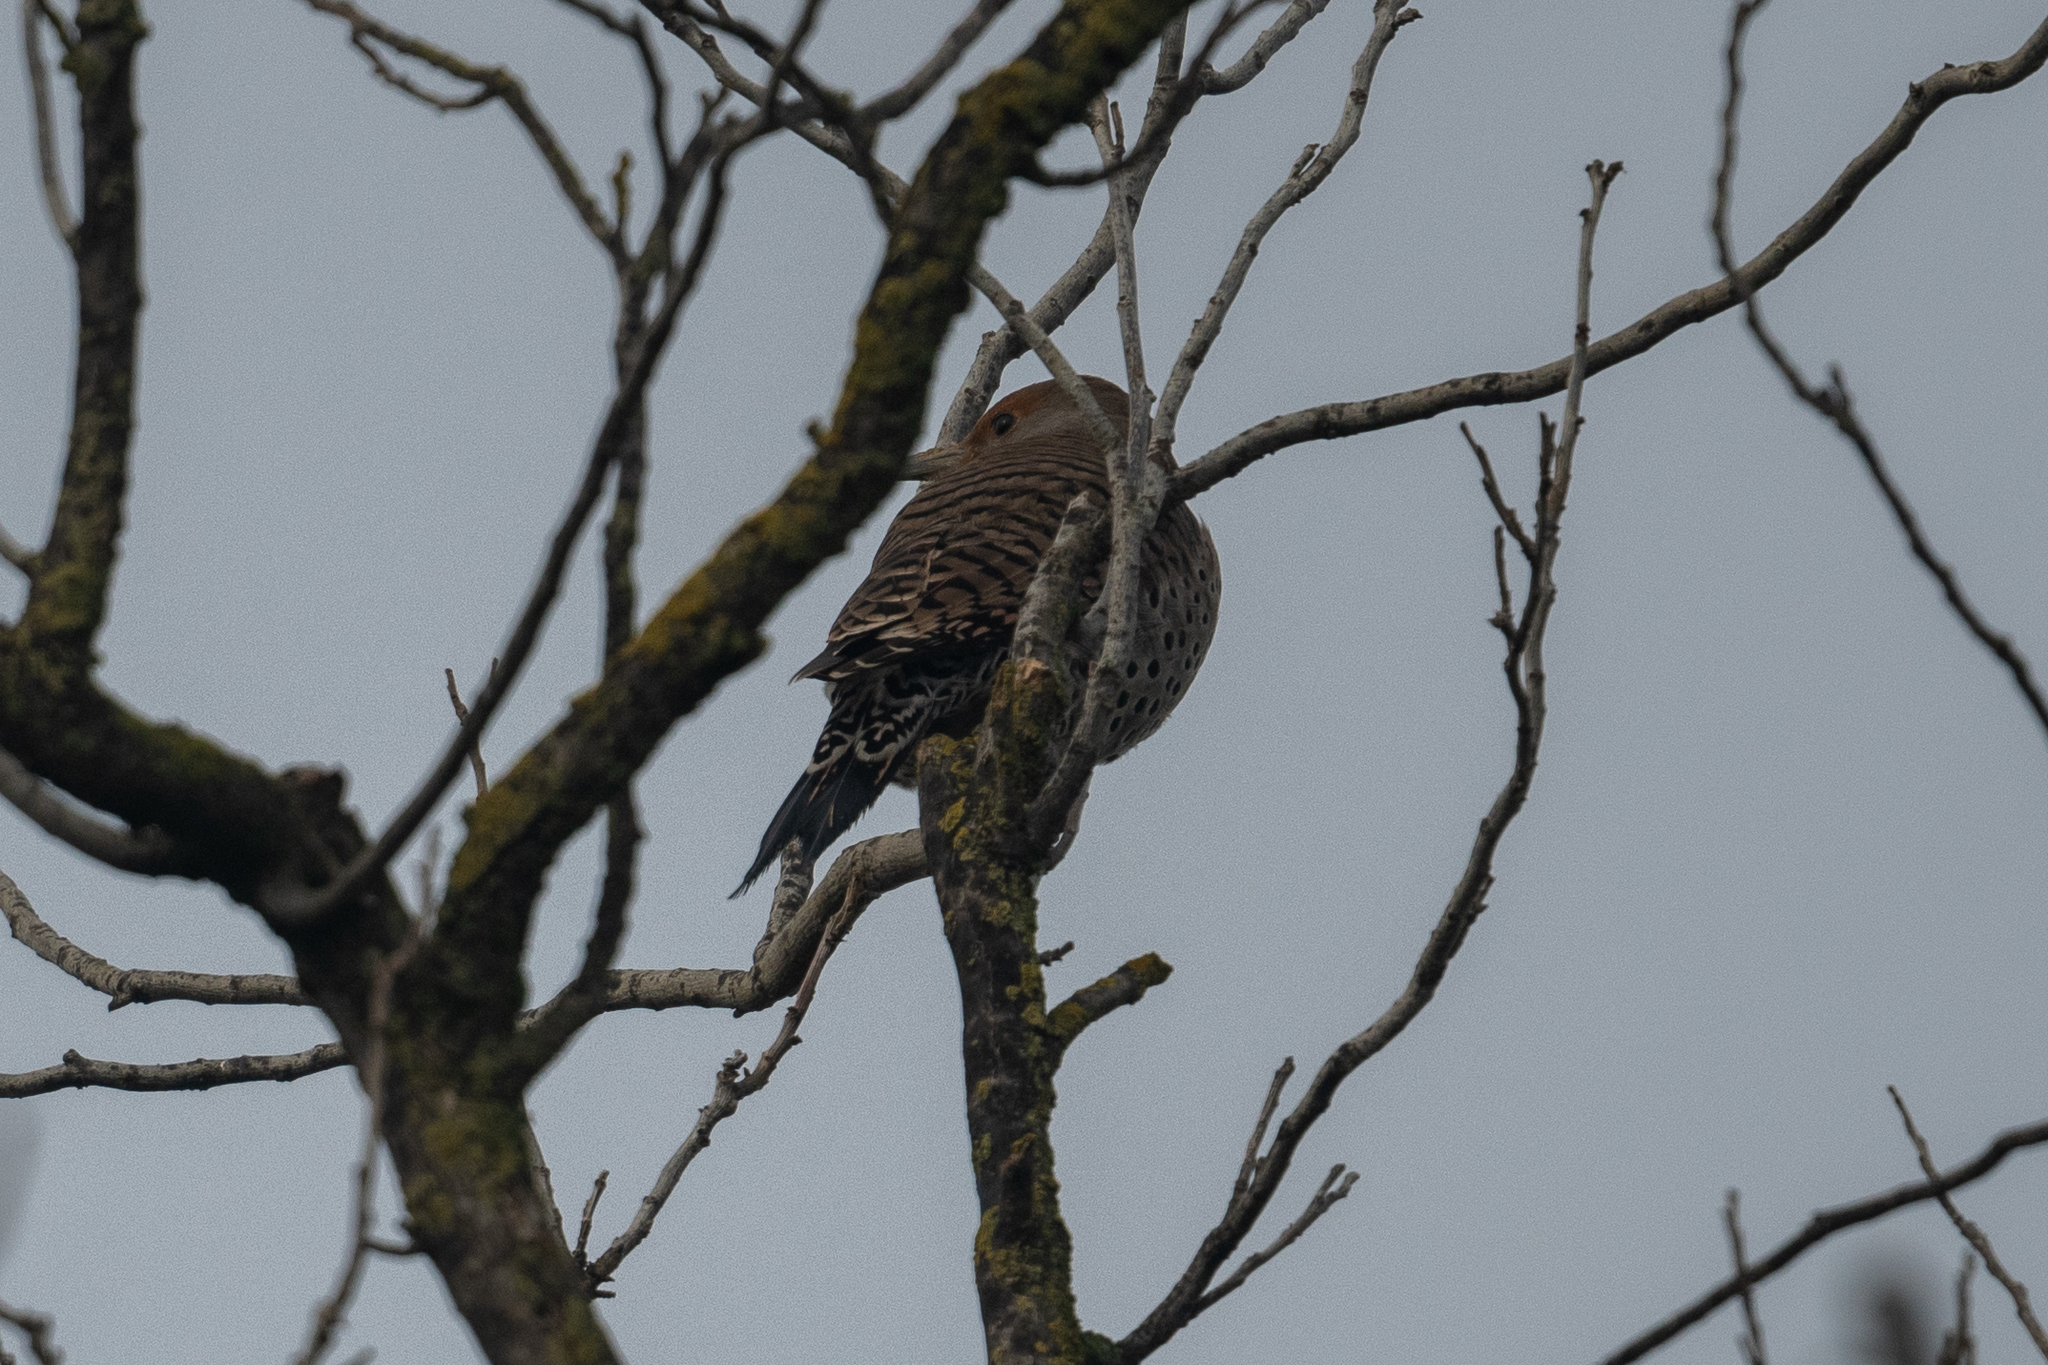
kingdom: Animalia
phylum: Chordata
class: Aves
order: Piciformes
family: Picidae
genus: Colaptes
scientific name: Colaptes auratus
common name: Northern flicker
